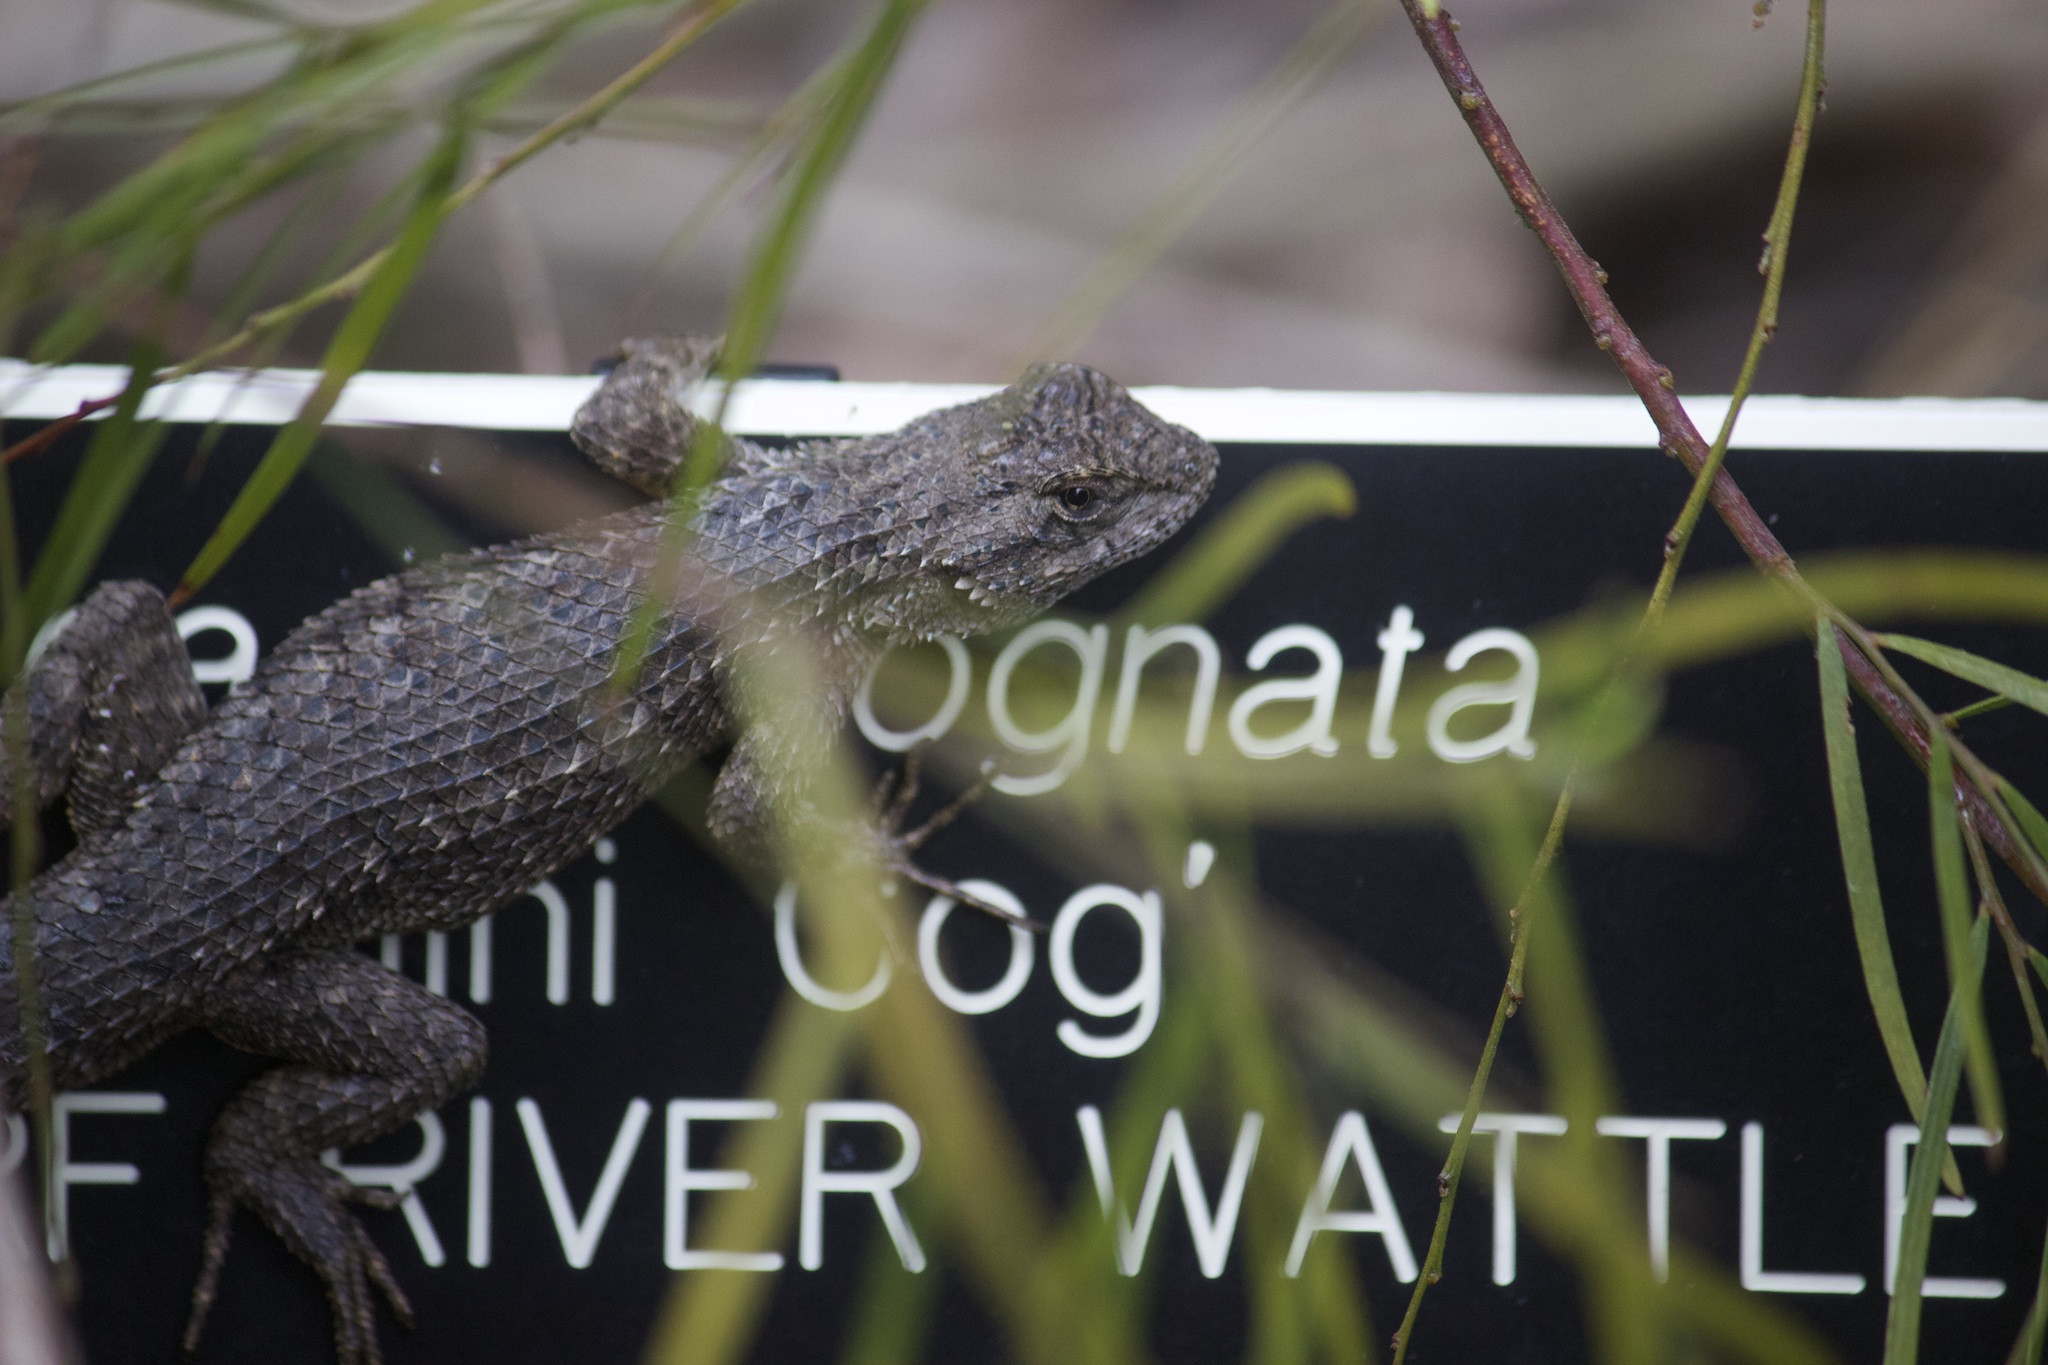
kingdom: Animalia
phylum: Chordata
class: Squamata
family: Phrynosomatidae
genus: Sceloporus
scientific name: Sceloporus occidentalis
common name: Western fence lizard
